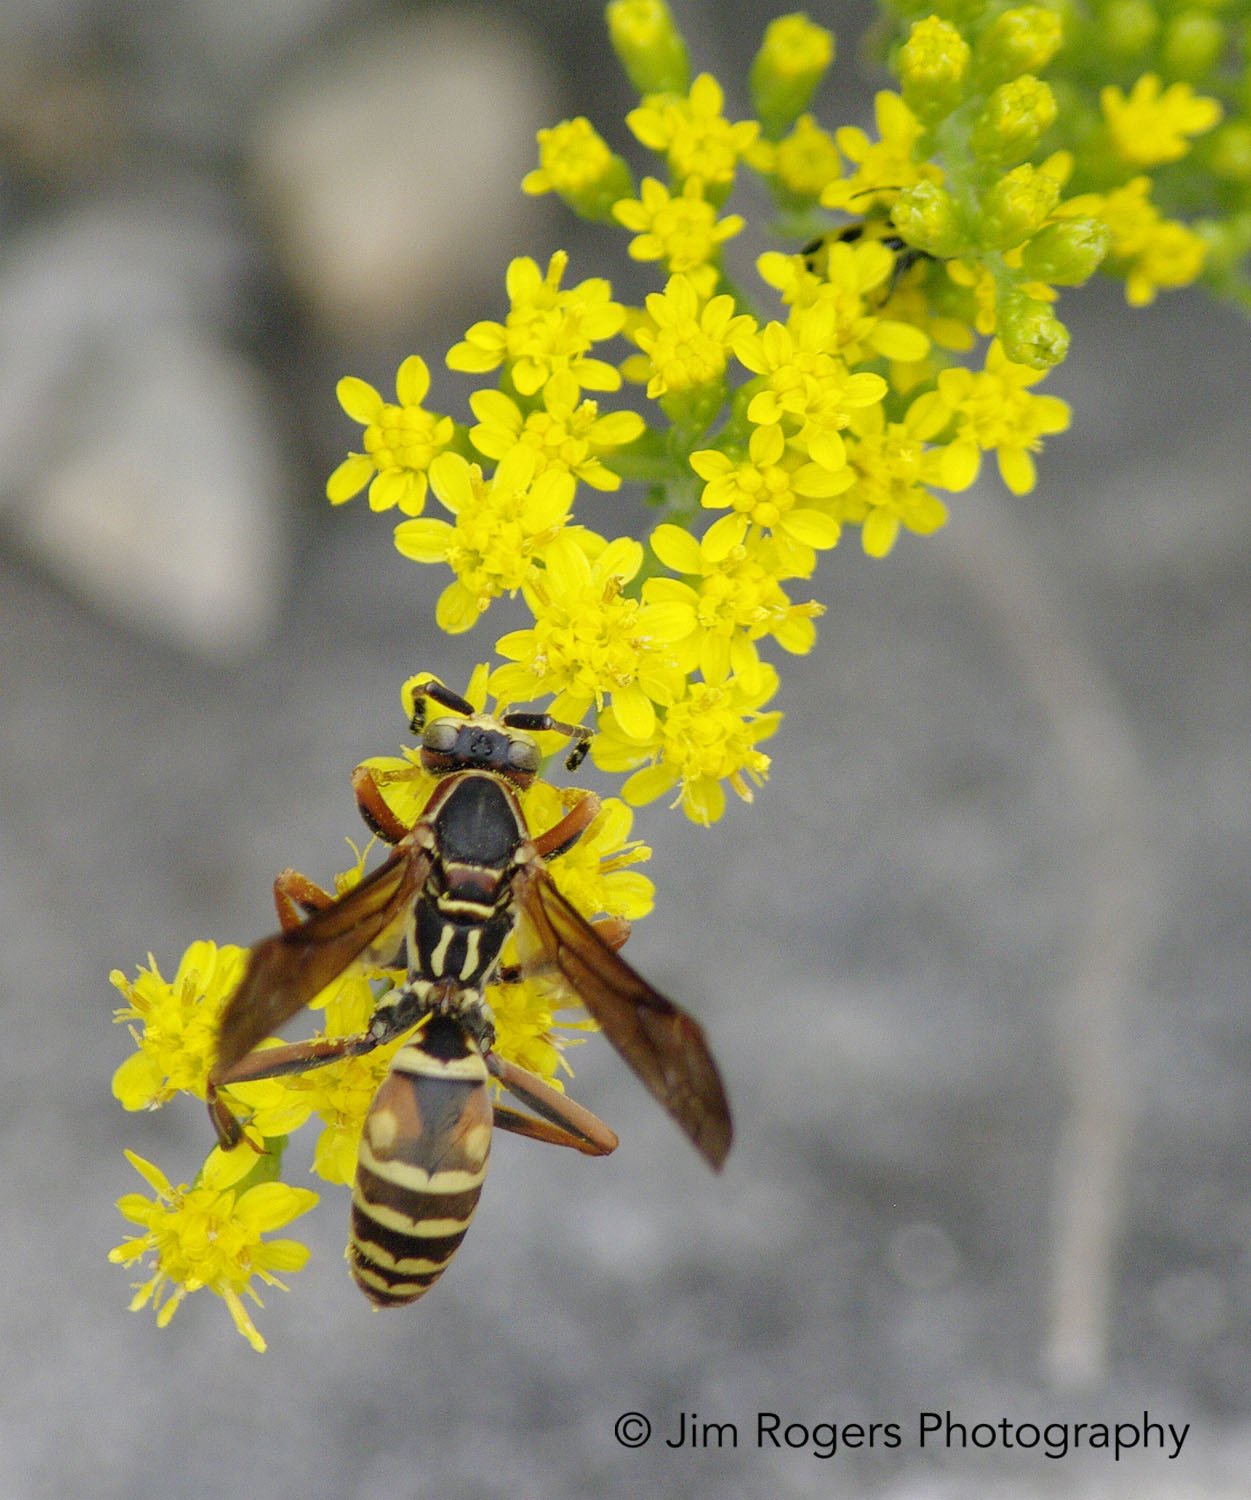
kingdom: Animalia
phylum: Arthropoda
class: Insecta
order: Hymenoptera
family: Eumenidae
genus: Polistes
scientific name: Polistes fuscatus
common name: Dark paper wasp
